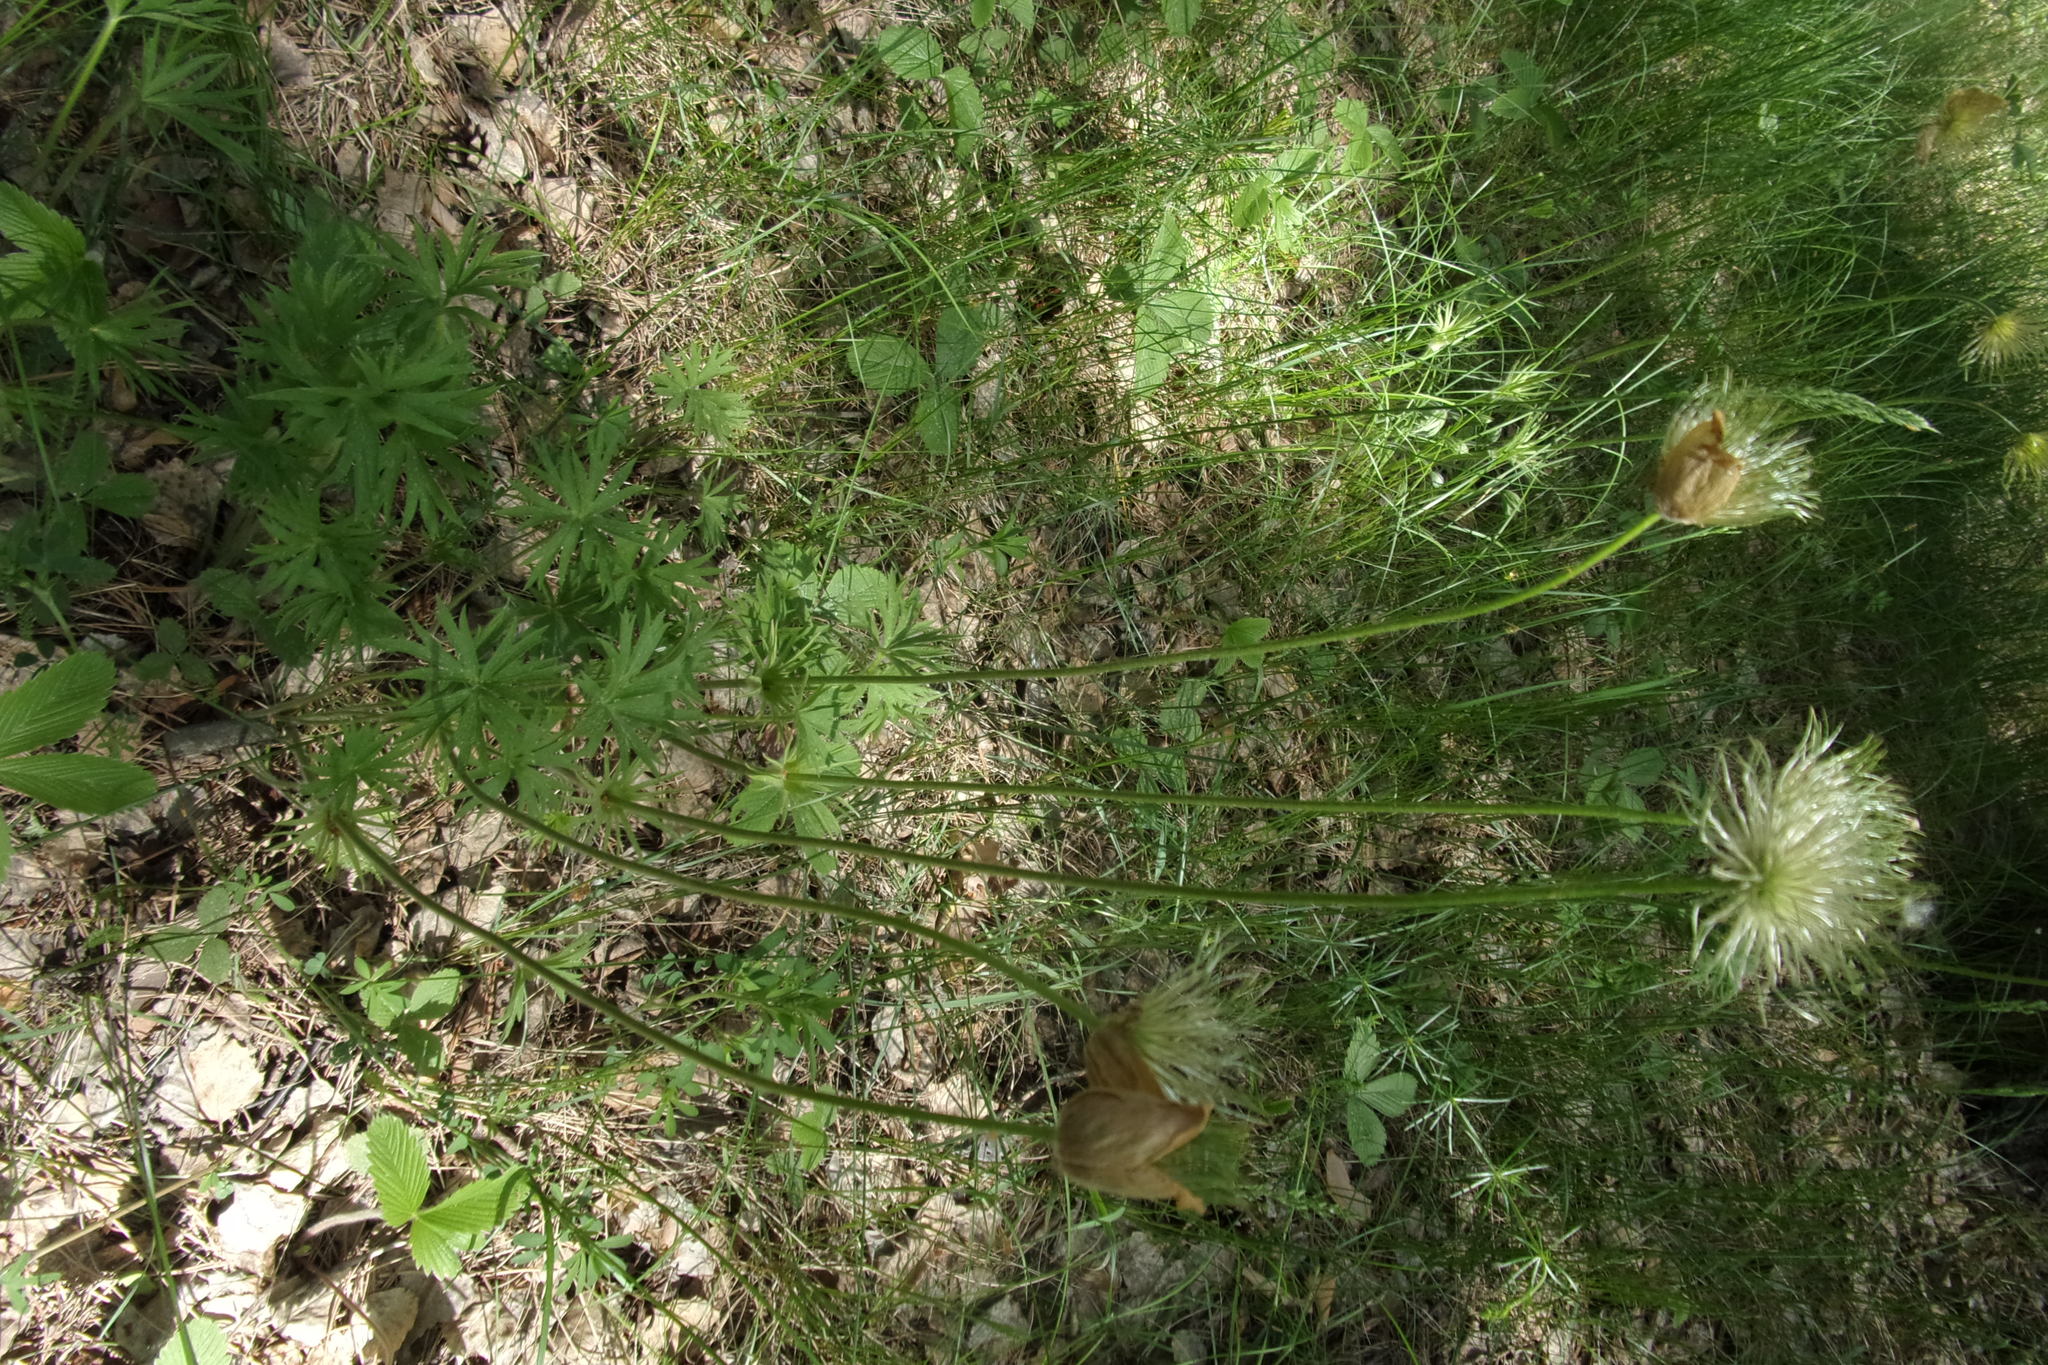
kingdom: Plantae
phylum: Tracheophyta
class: Magnoliopsida
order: Ranunculales
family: Ranunculaceae
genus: Pulsatilla
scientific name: Pulsatilla patens
